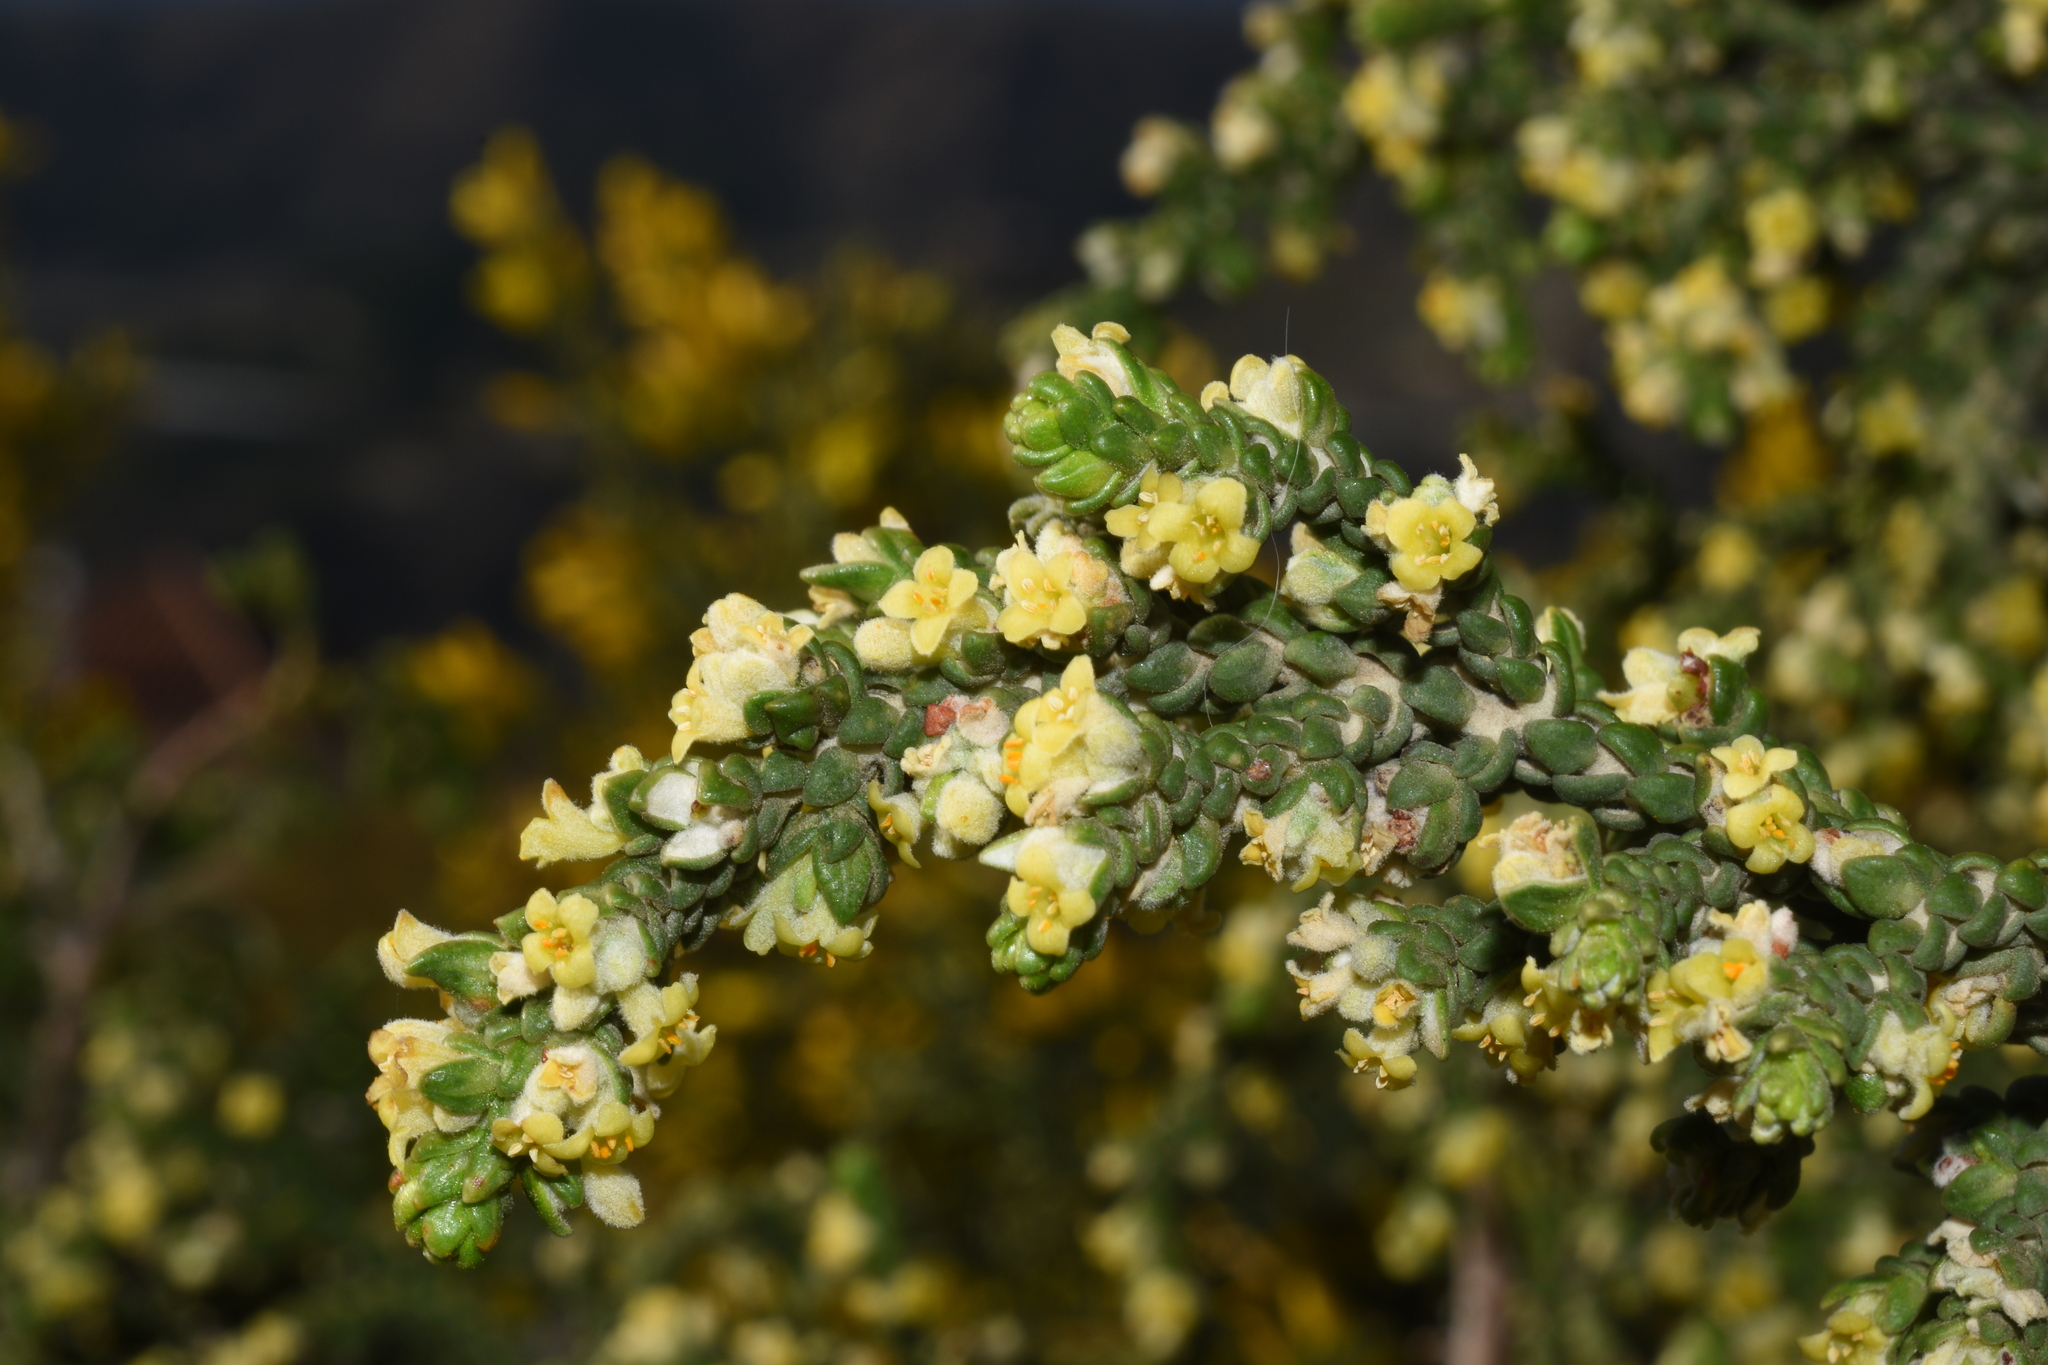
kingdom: Plantae
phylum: Tracheophyta
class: Magnoliopsida
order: Malvales
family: Thymelaeaceae
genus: Thymelaea
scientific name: Thymelaea hirsuta
